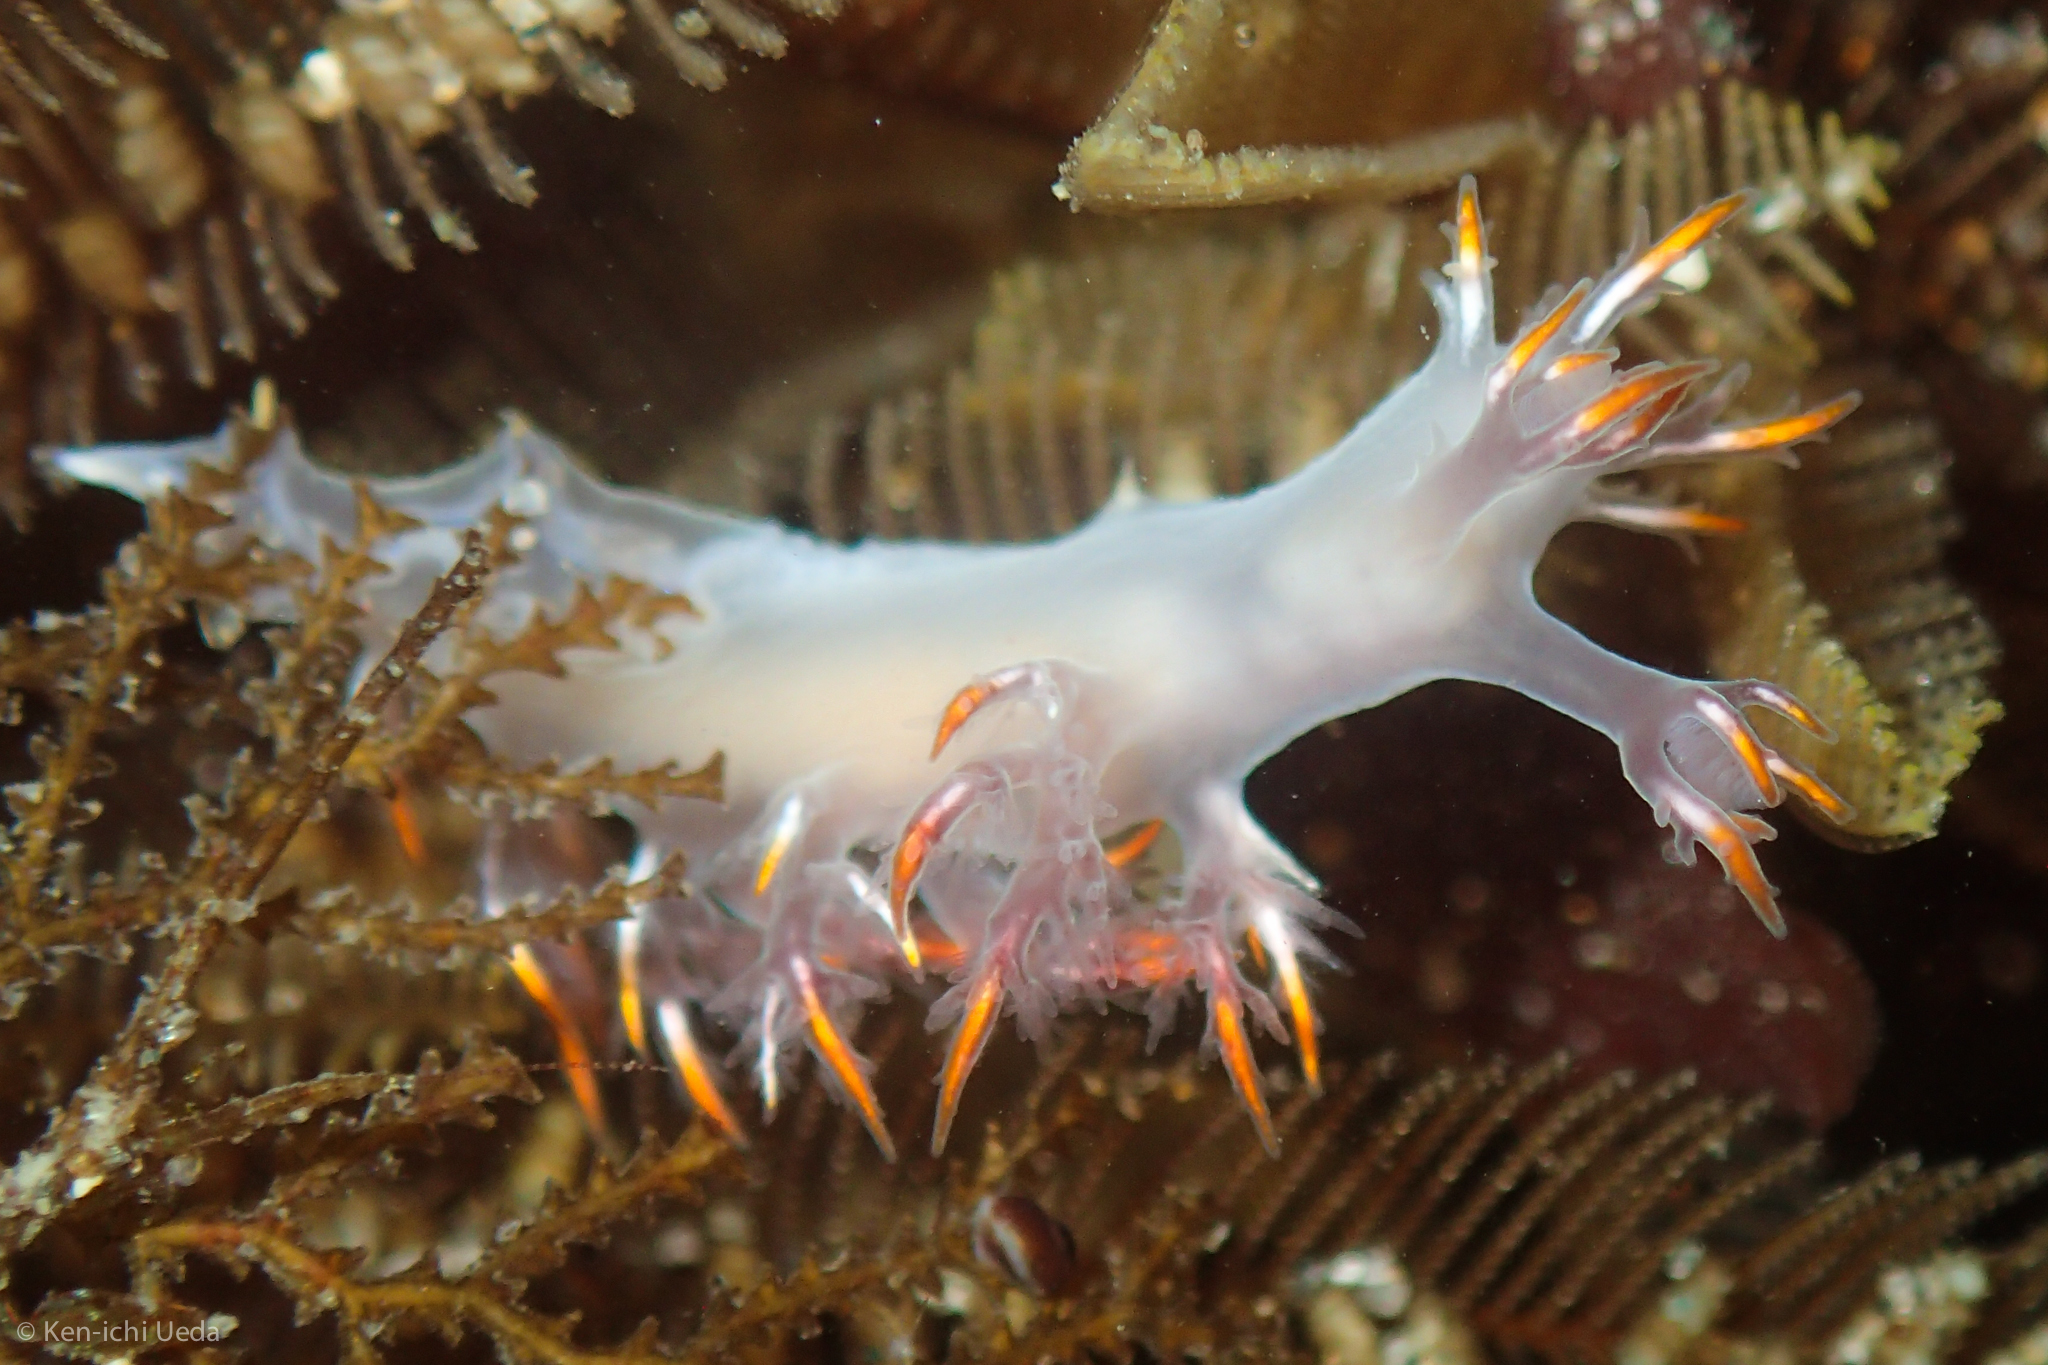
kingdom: Animalia
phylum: Mollusca
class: Gastropoda
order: Nudibranchia
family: Dendronotidae
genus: Dendronotus
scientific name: Dendronotus albus
